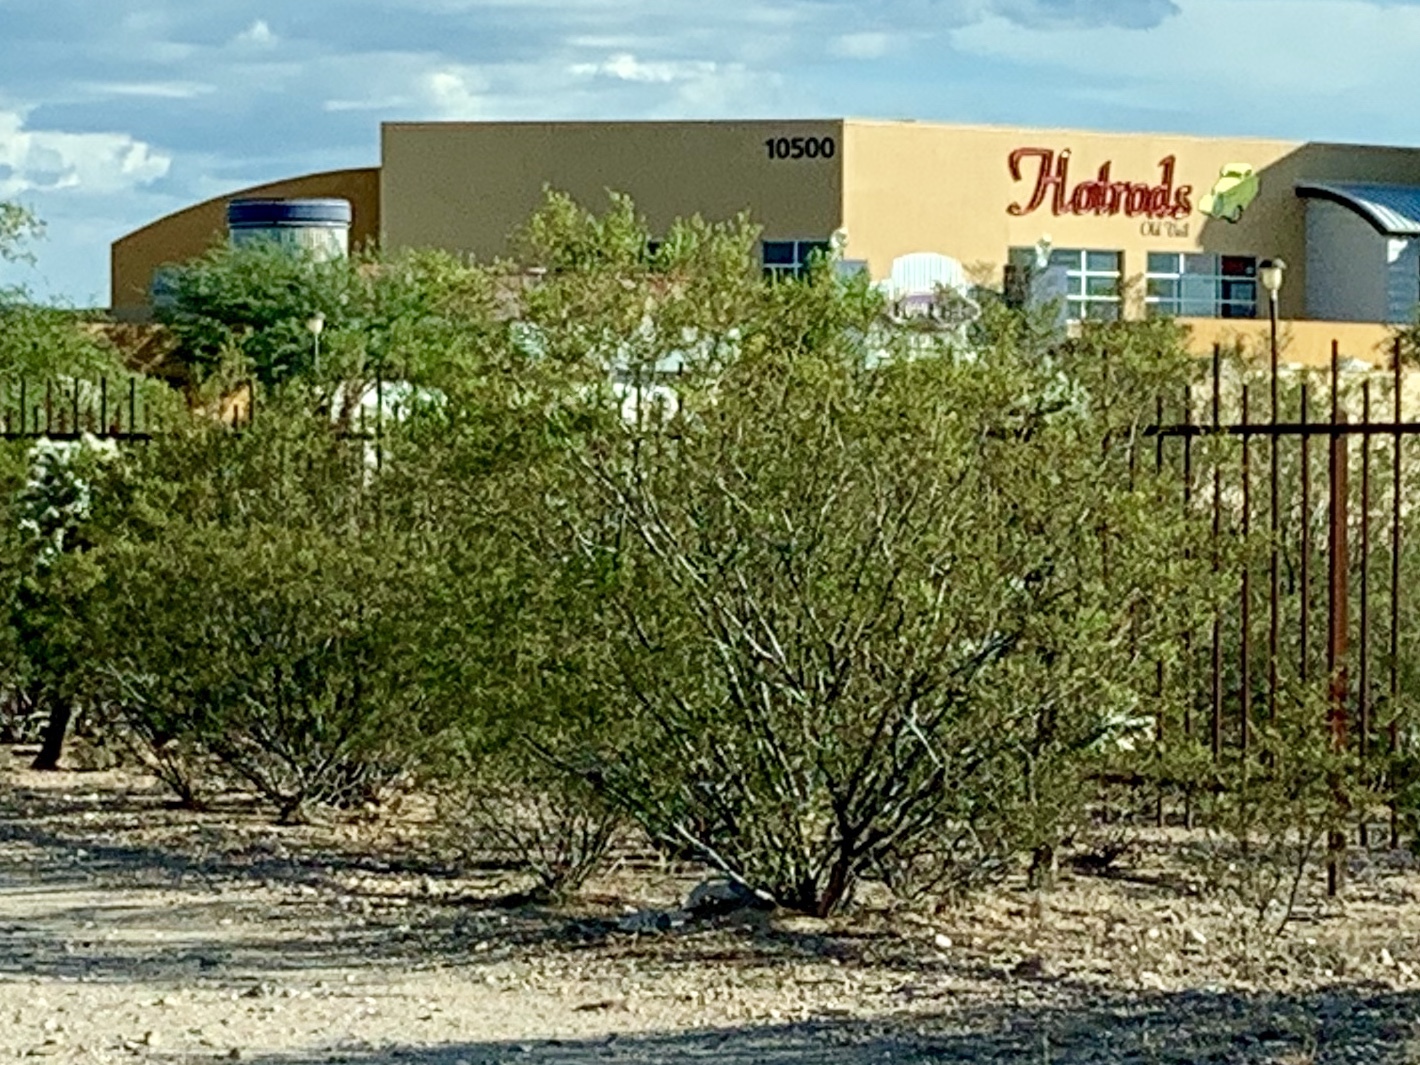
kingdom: Plantae
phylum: Tracheophyta
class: Magnoliopsida
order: Zygophyllales
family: Zygophyllaceae
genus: Larrea
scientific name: Larrea tridentata
